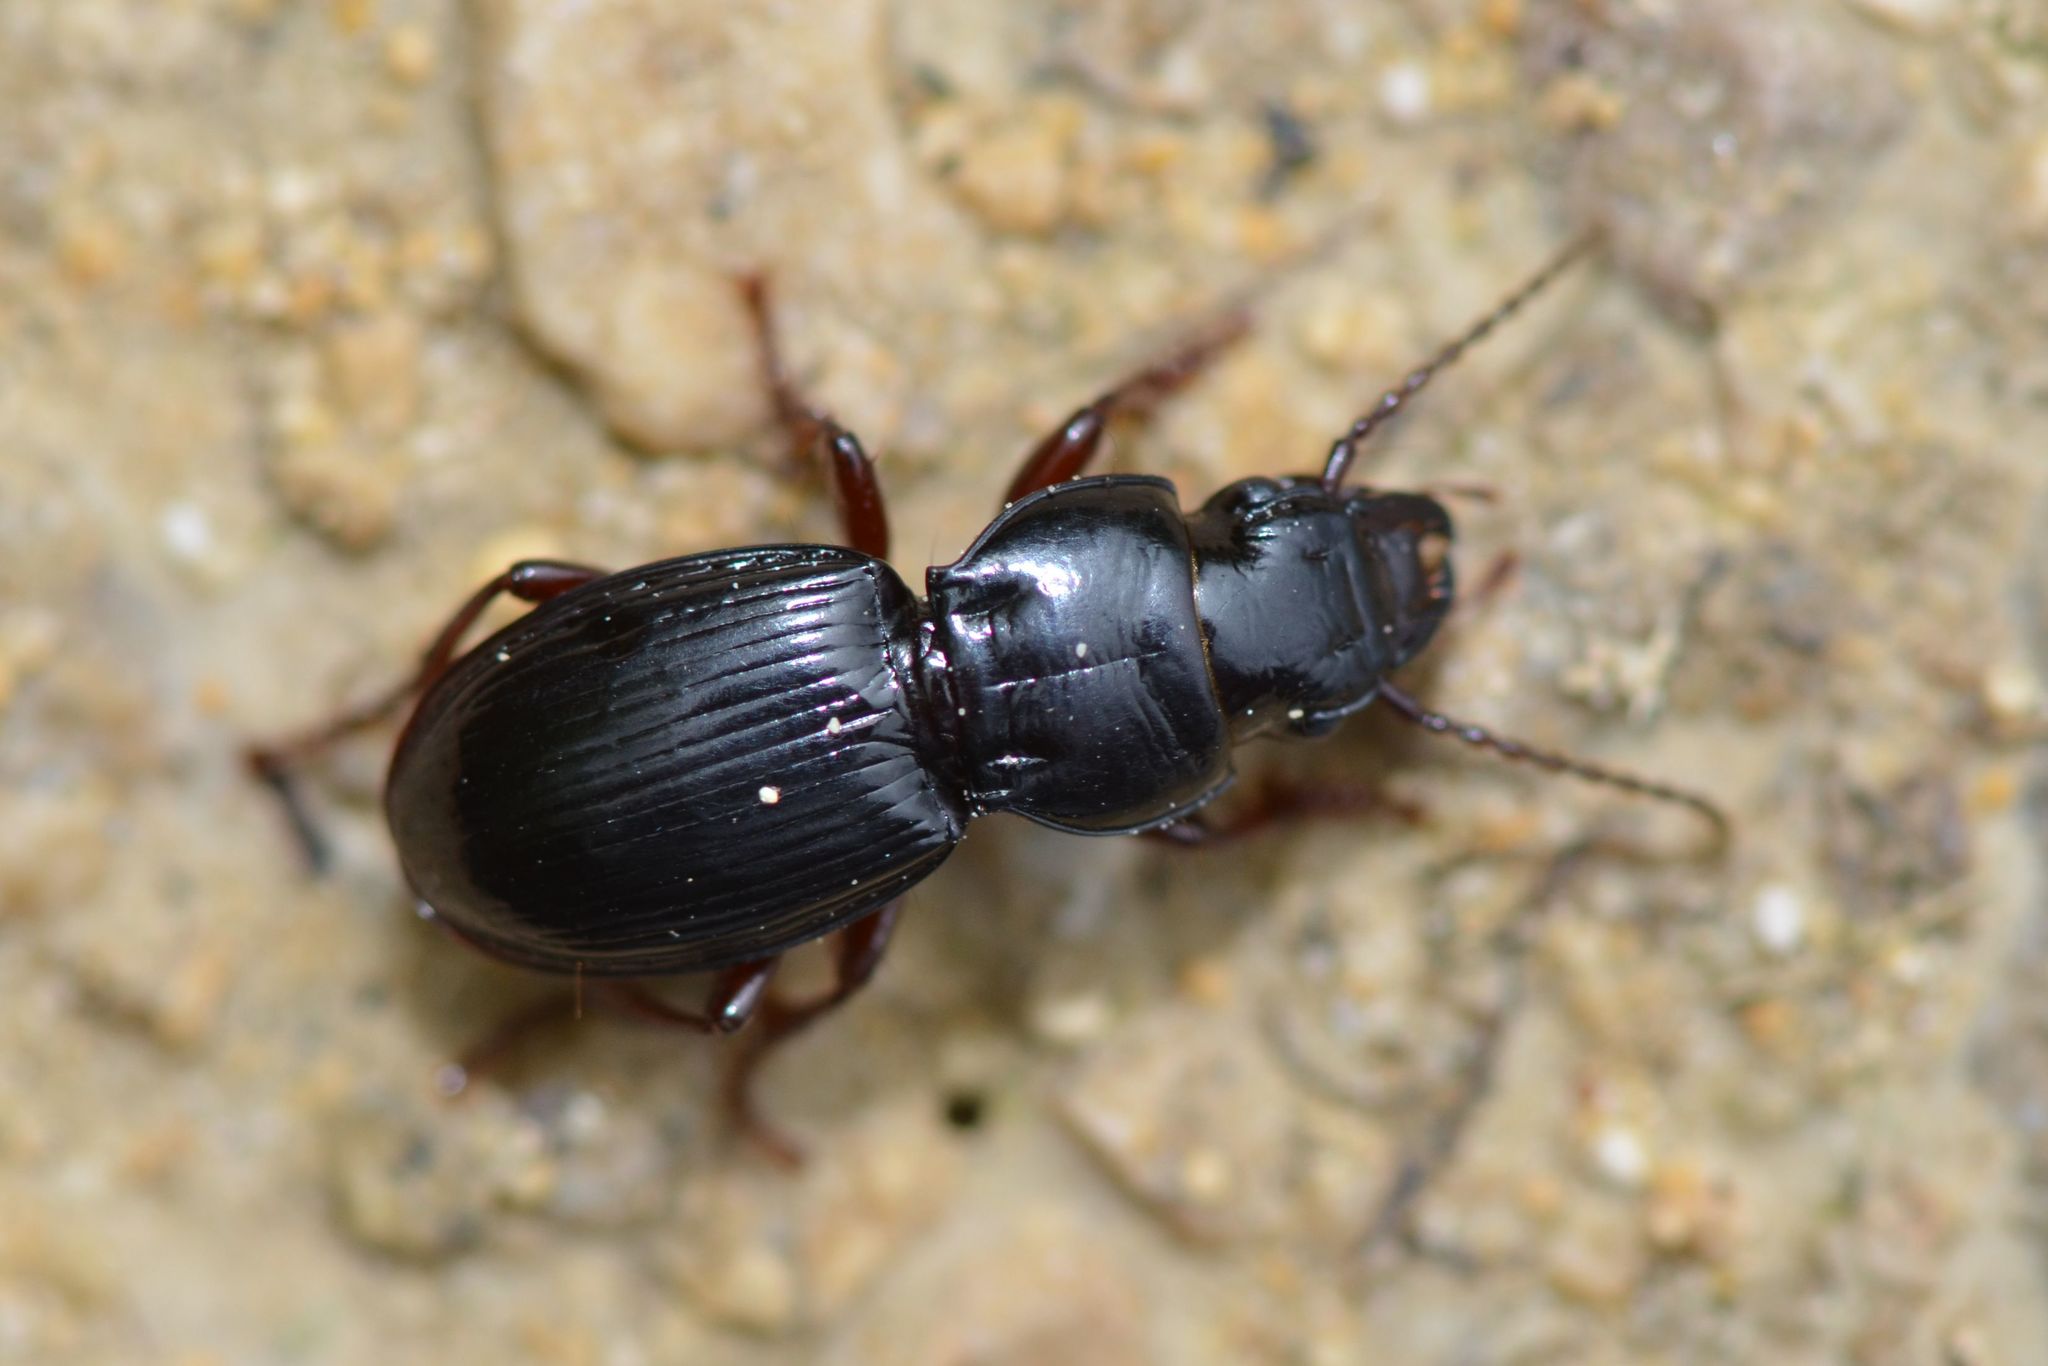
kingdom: Animalia
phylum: Arthropoda
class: Insecta
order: Coleoptera
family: Carabidae
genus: Molops
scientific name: Molops piceus
